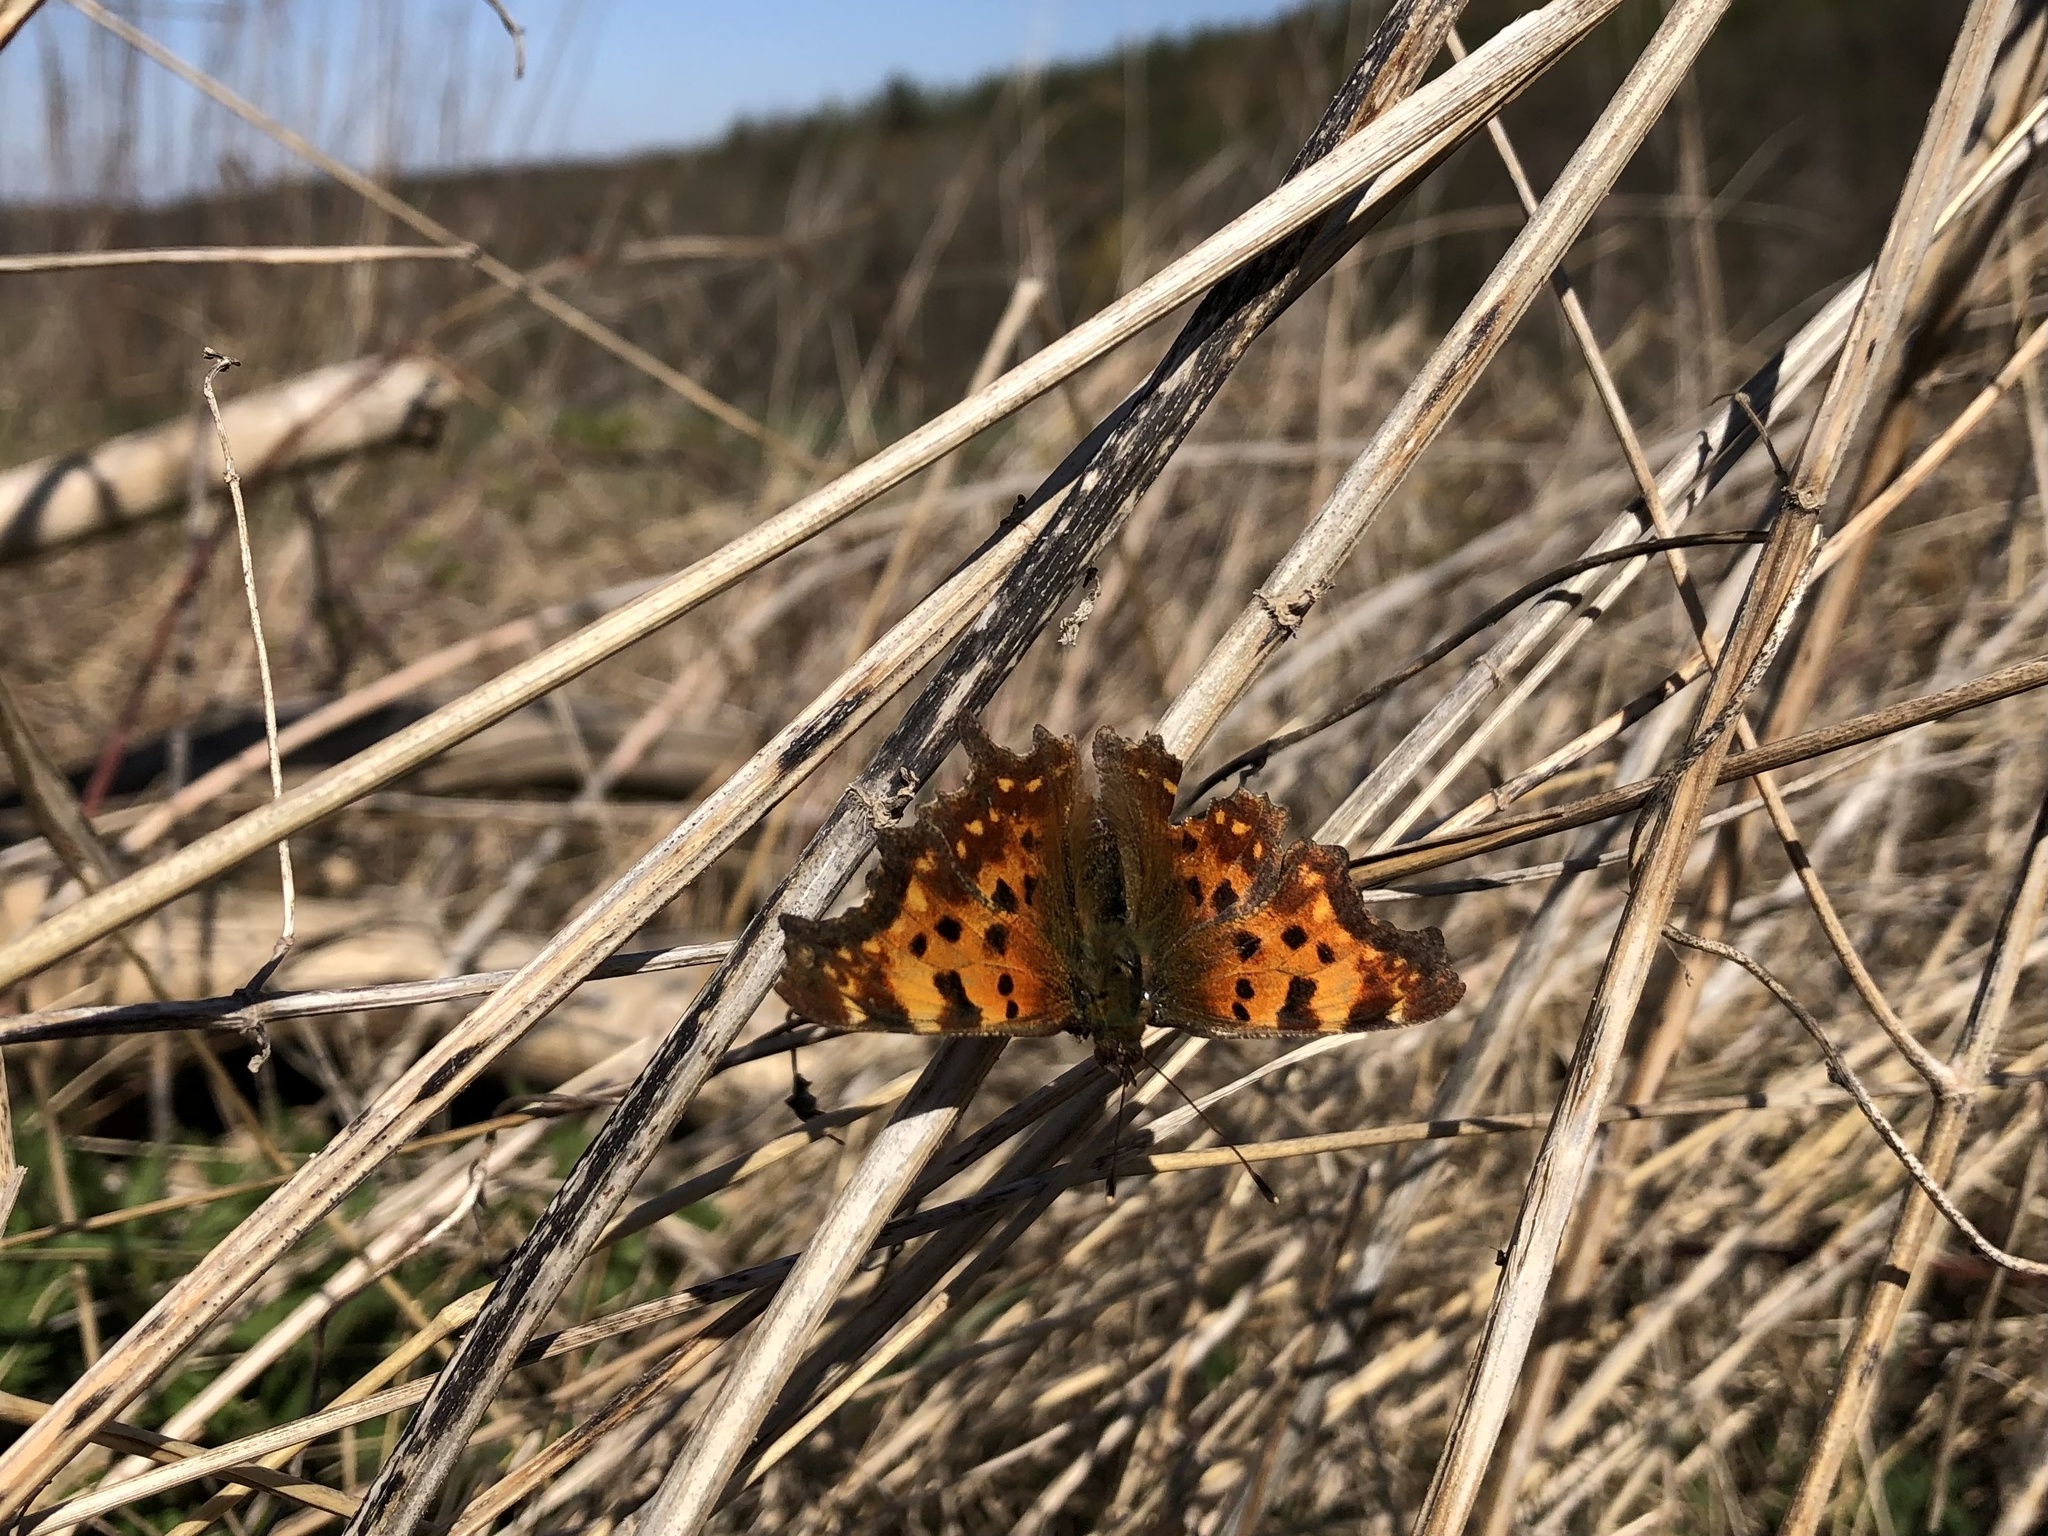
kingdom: Animalia
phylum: Arthropoda
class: Insecta
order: Lepidoptera
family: Nymphalidae
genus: Polygonia
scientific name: Polygonia c-album
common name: Comma
